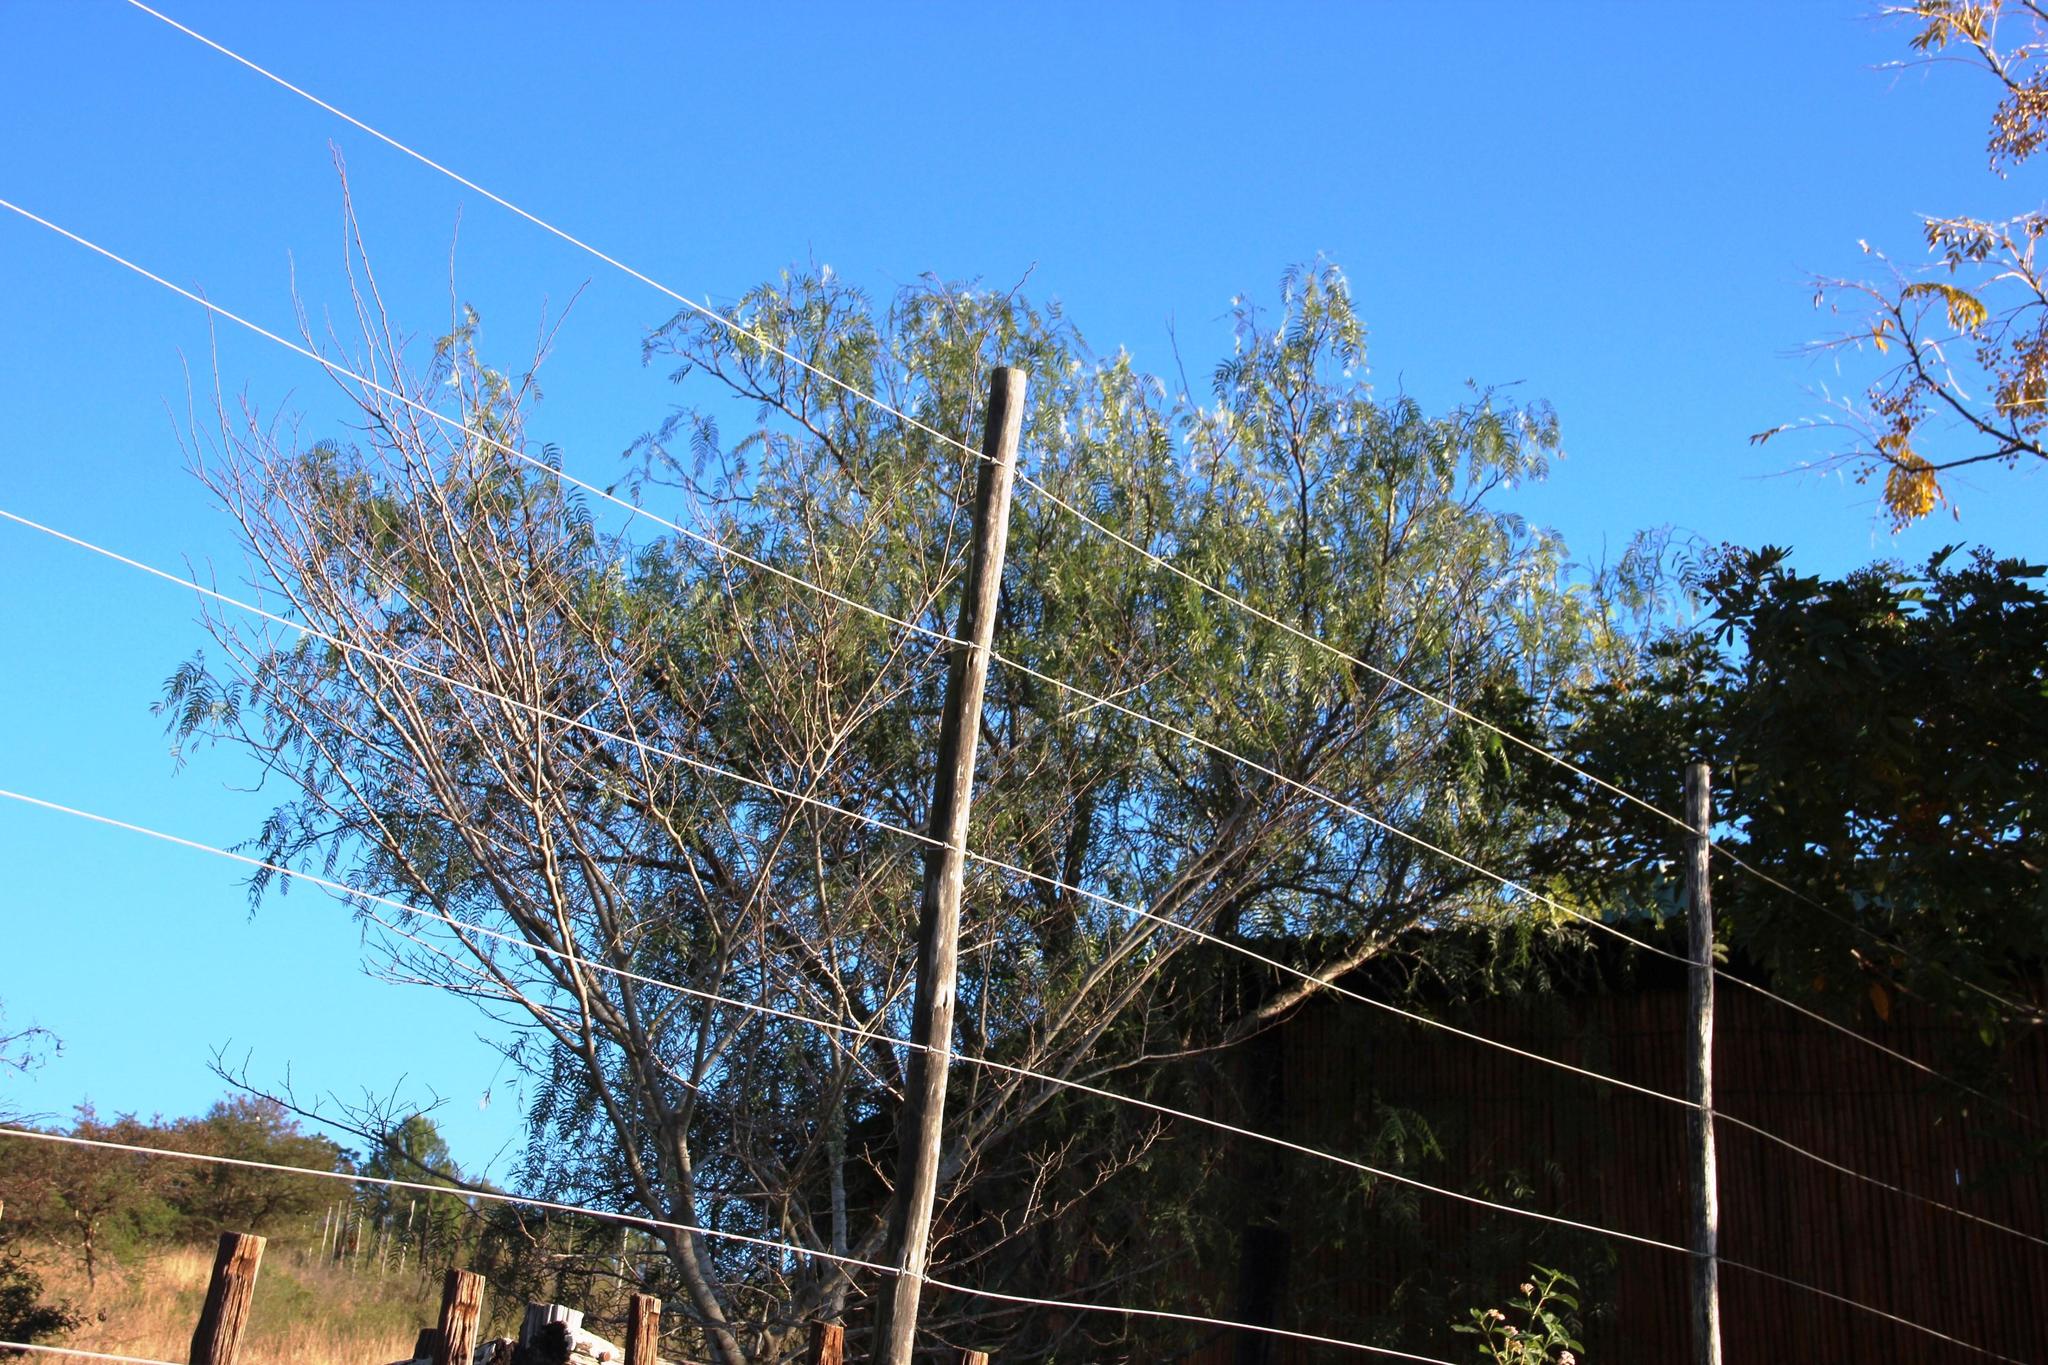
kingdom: Plantae
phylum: Tracheophyta
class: Magnoliopsida
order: Sapindales
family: Anacardiaceae
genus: Schinus
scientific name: Schinus molle
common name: Peruvian peppertree
